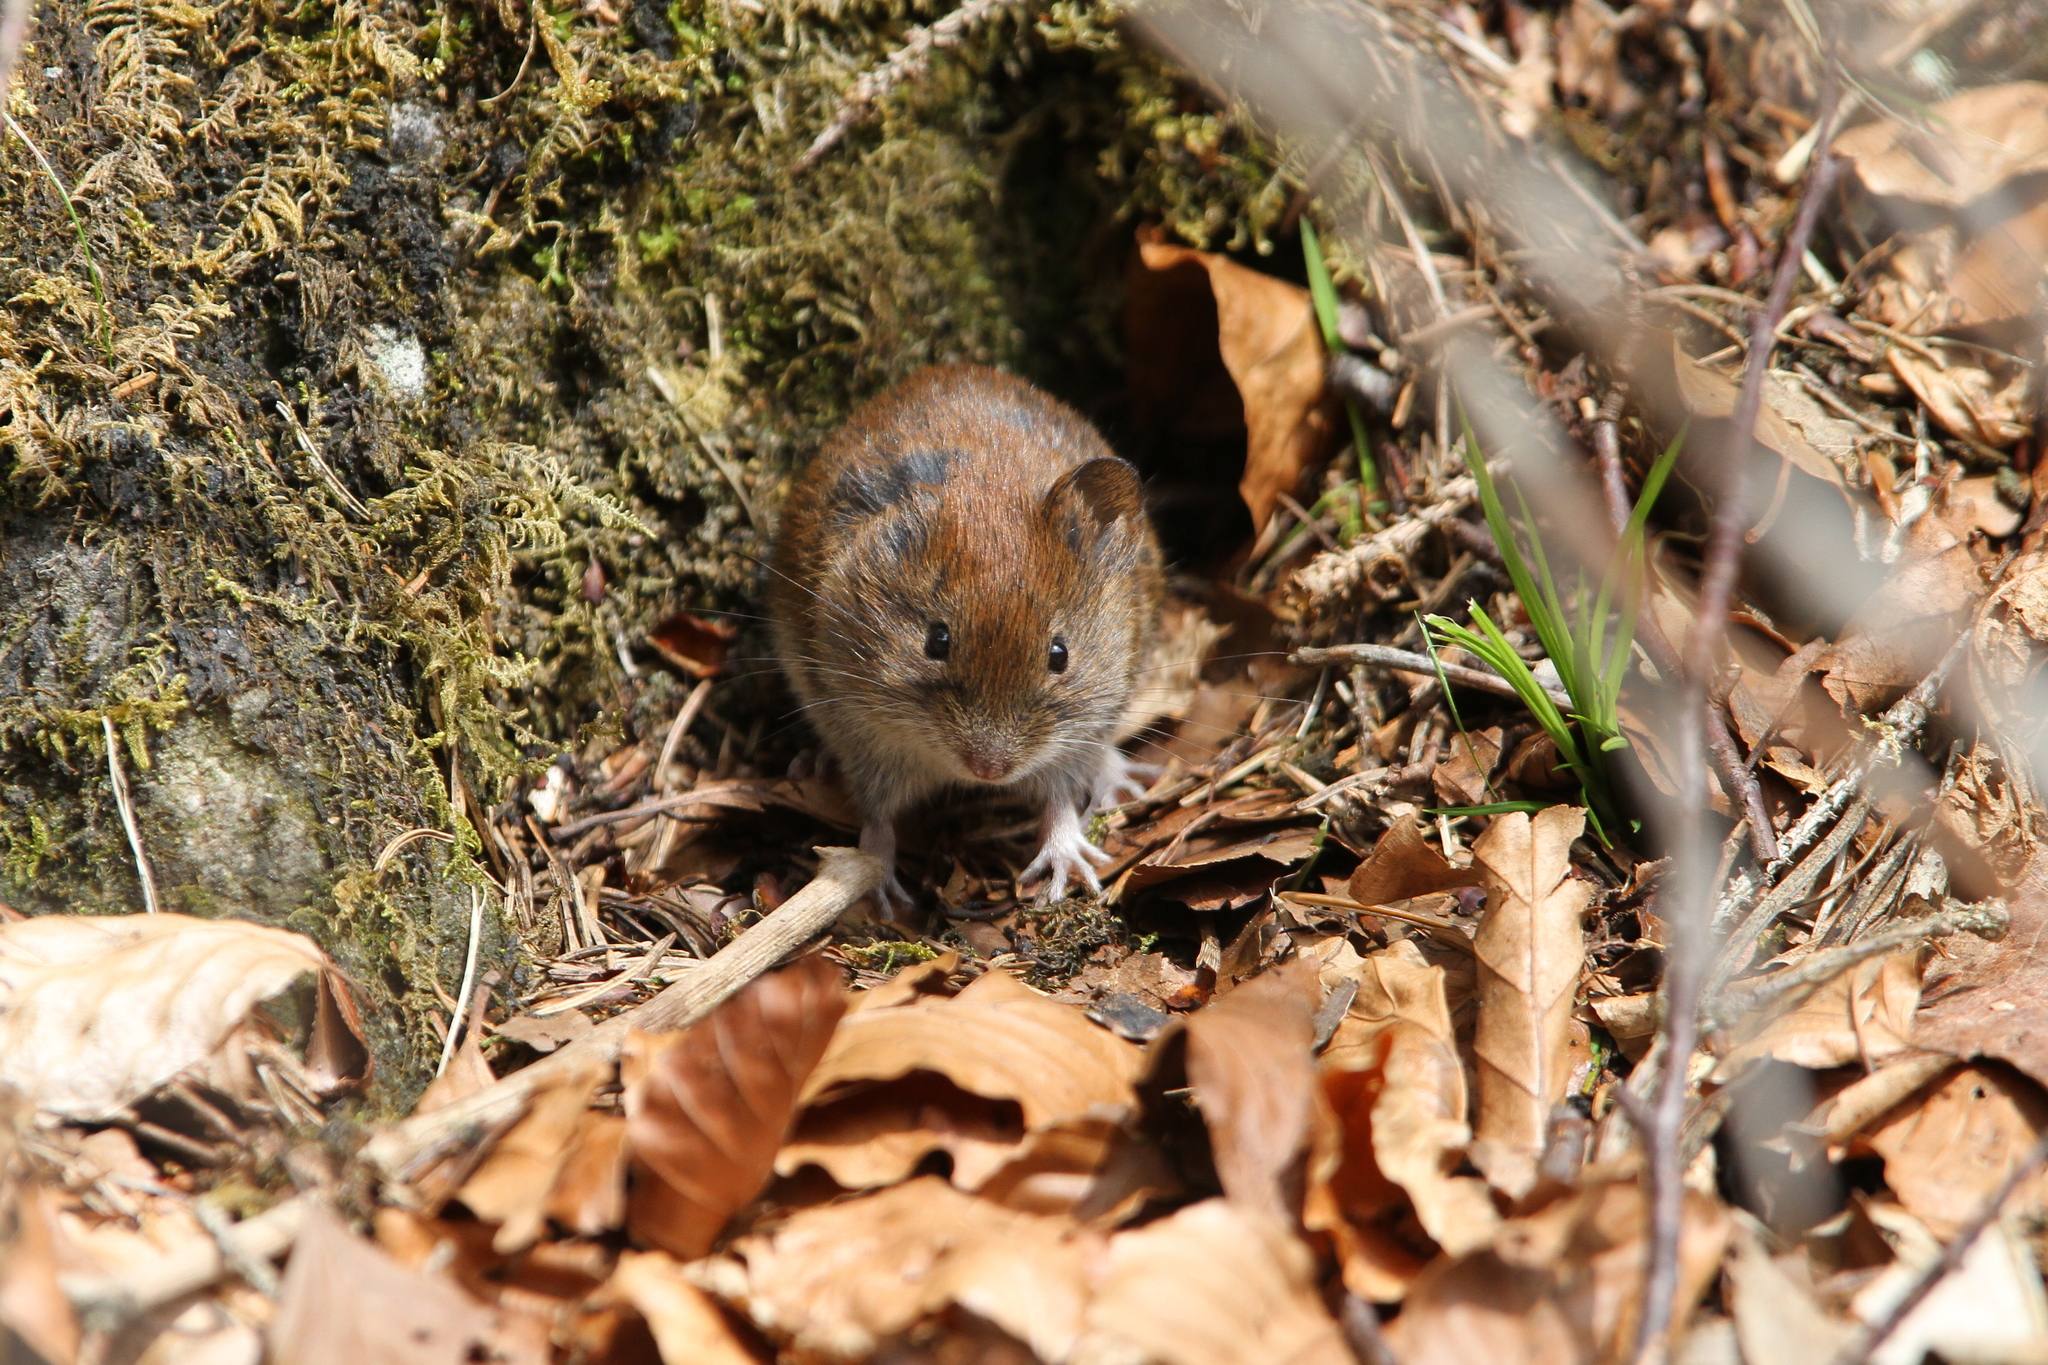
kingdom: Animalia
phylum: Chordata
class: Mammalia
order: Rodentia
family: Cricetidae
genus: Myodes
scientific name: Myodes glareolus
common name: Bank vole
